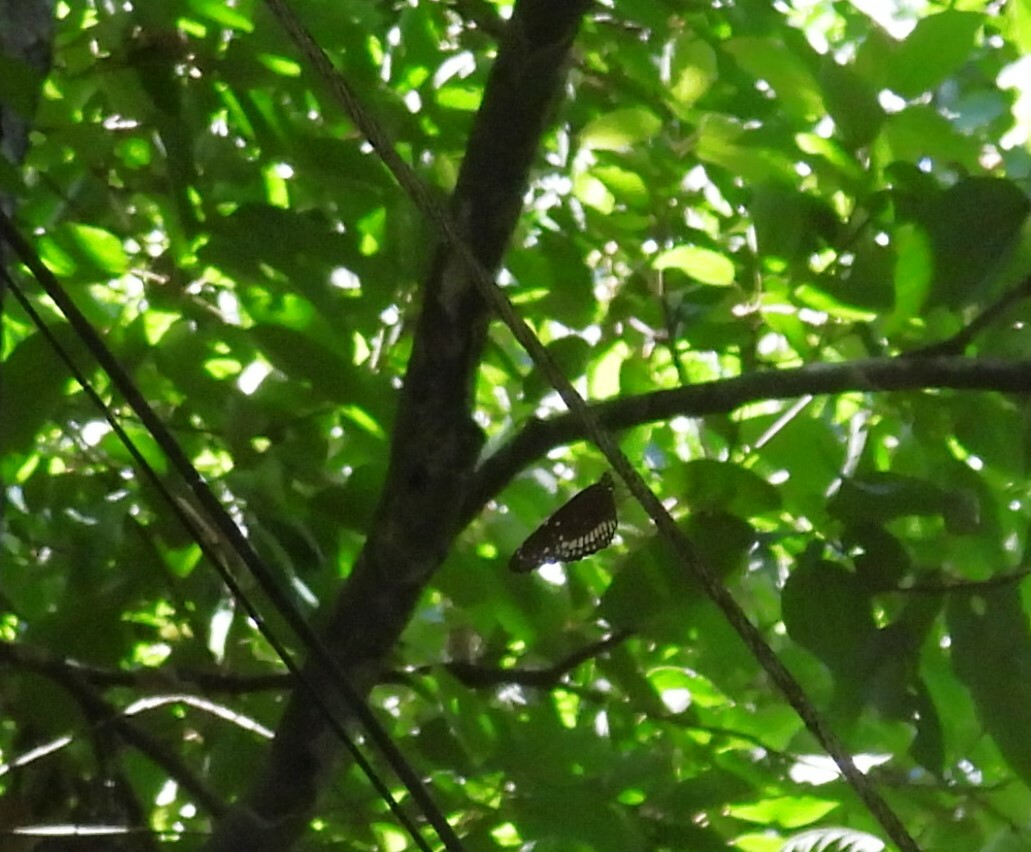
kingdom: Animalia
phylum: Arthropoda
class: Insecta
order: Lepidoptera
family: Nymphalidae
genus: Euploea
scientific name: Euploea core
